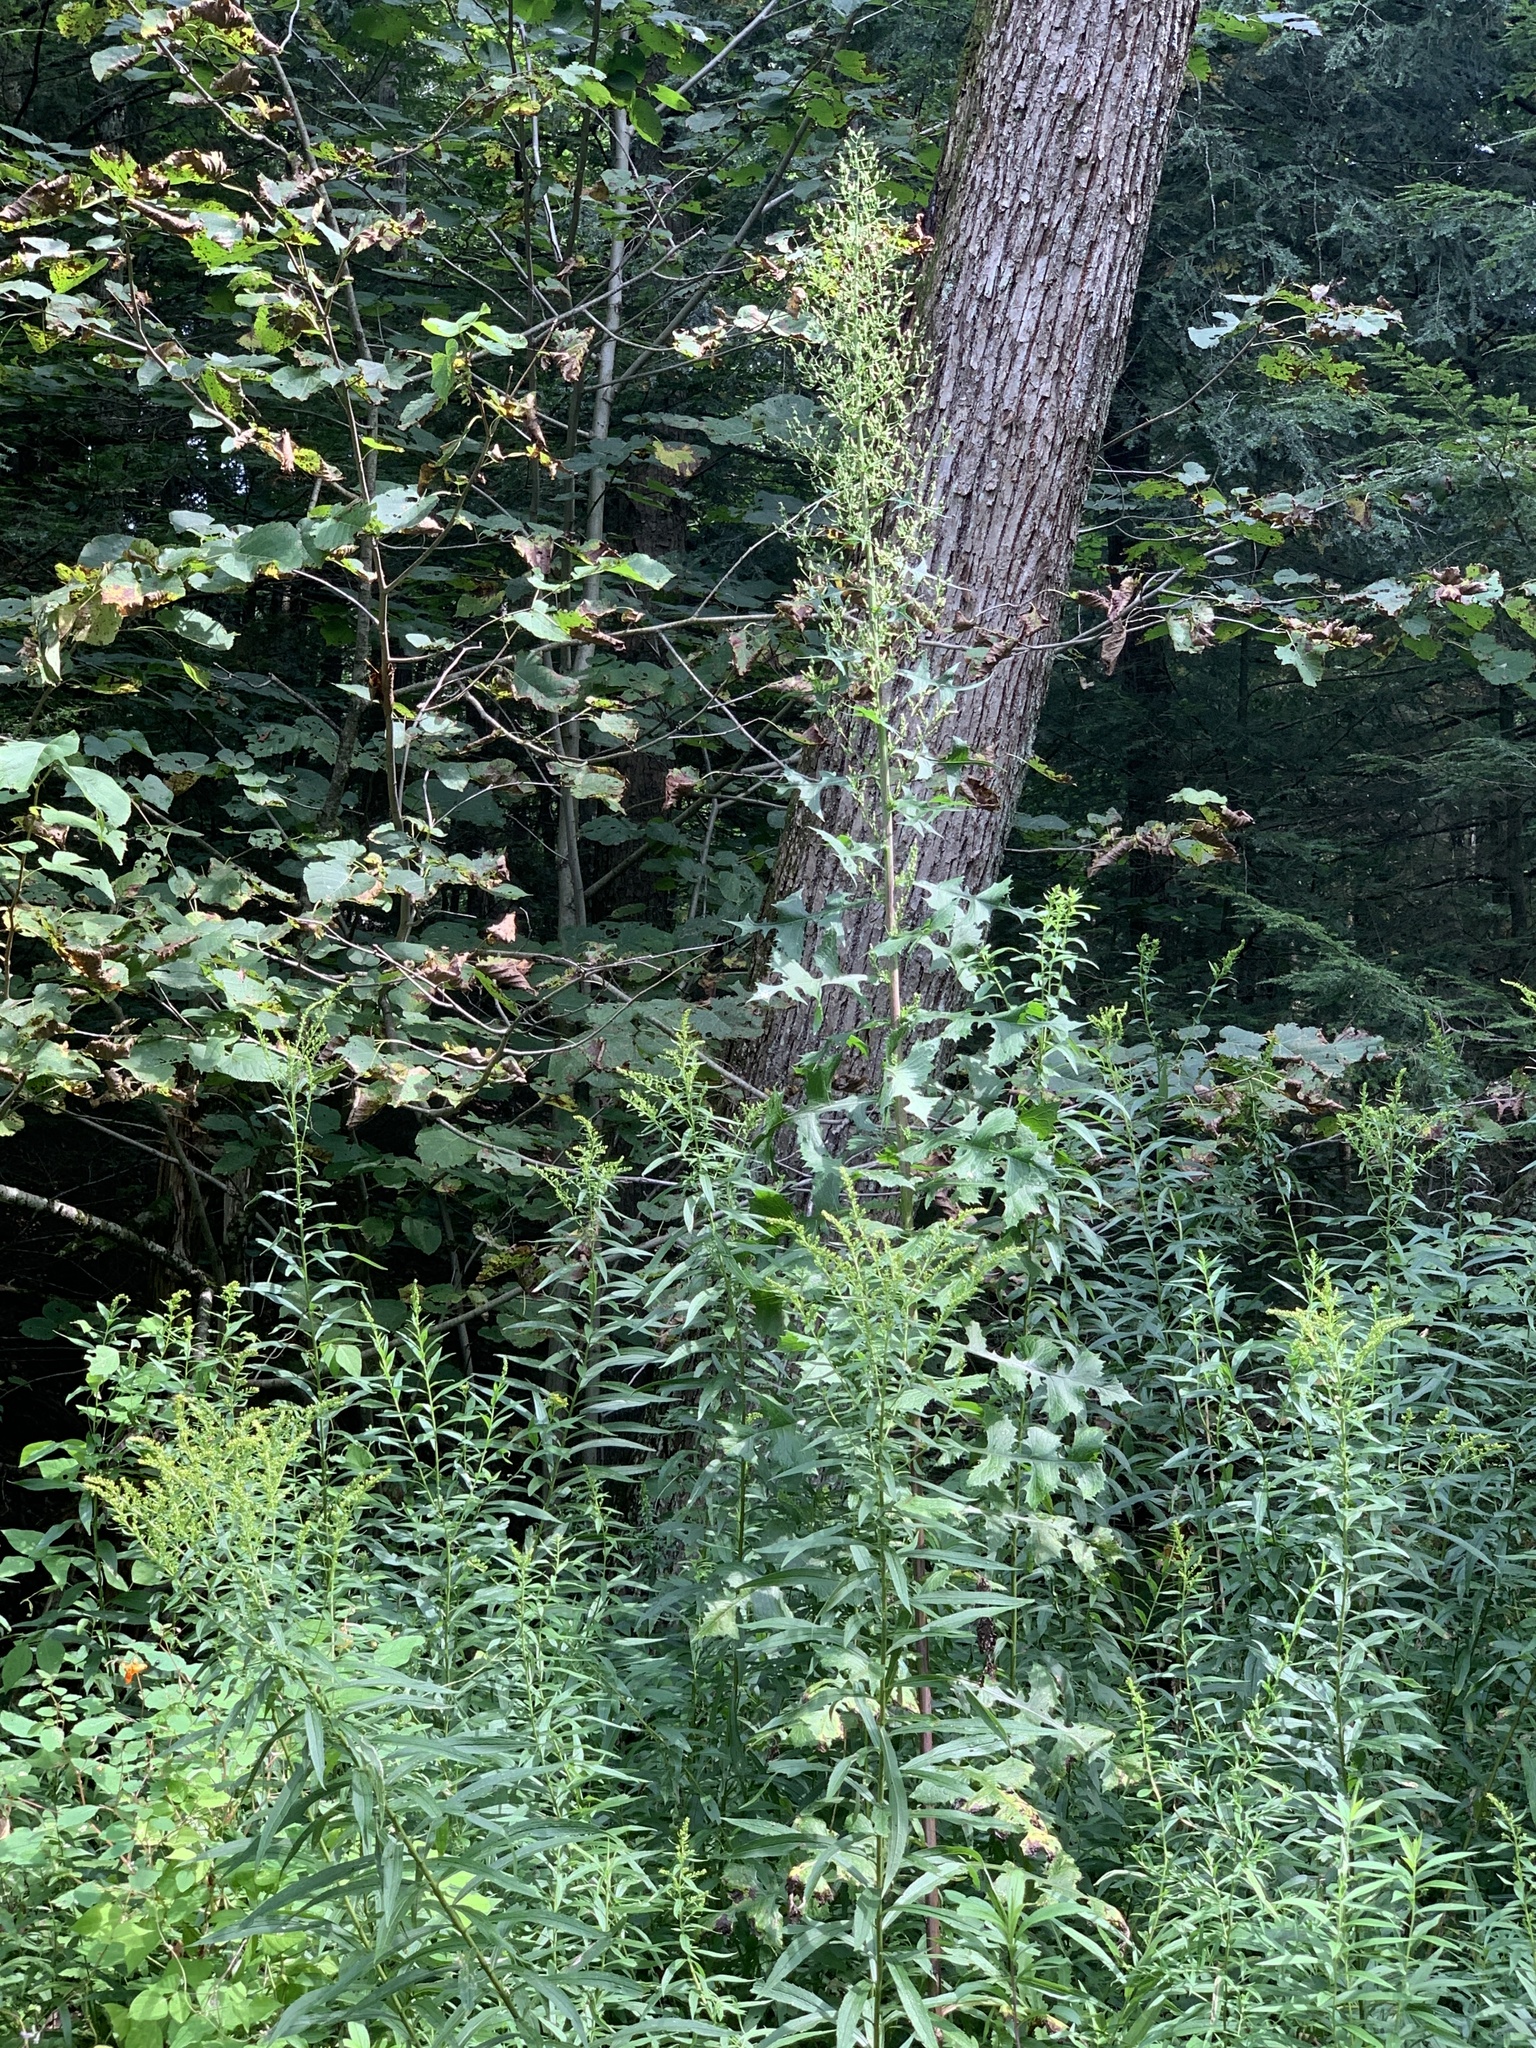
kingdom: Plantae
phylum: Tracheophyta
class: Magnoliopsida
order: Asterales
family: Asteraceae
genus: Lactuca
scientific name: Lactuca biennis
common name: Blue wood lettuce
